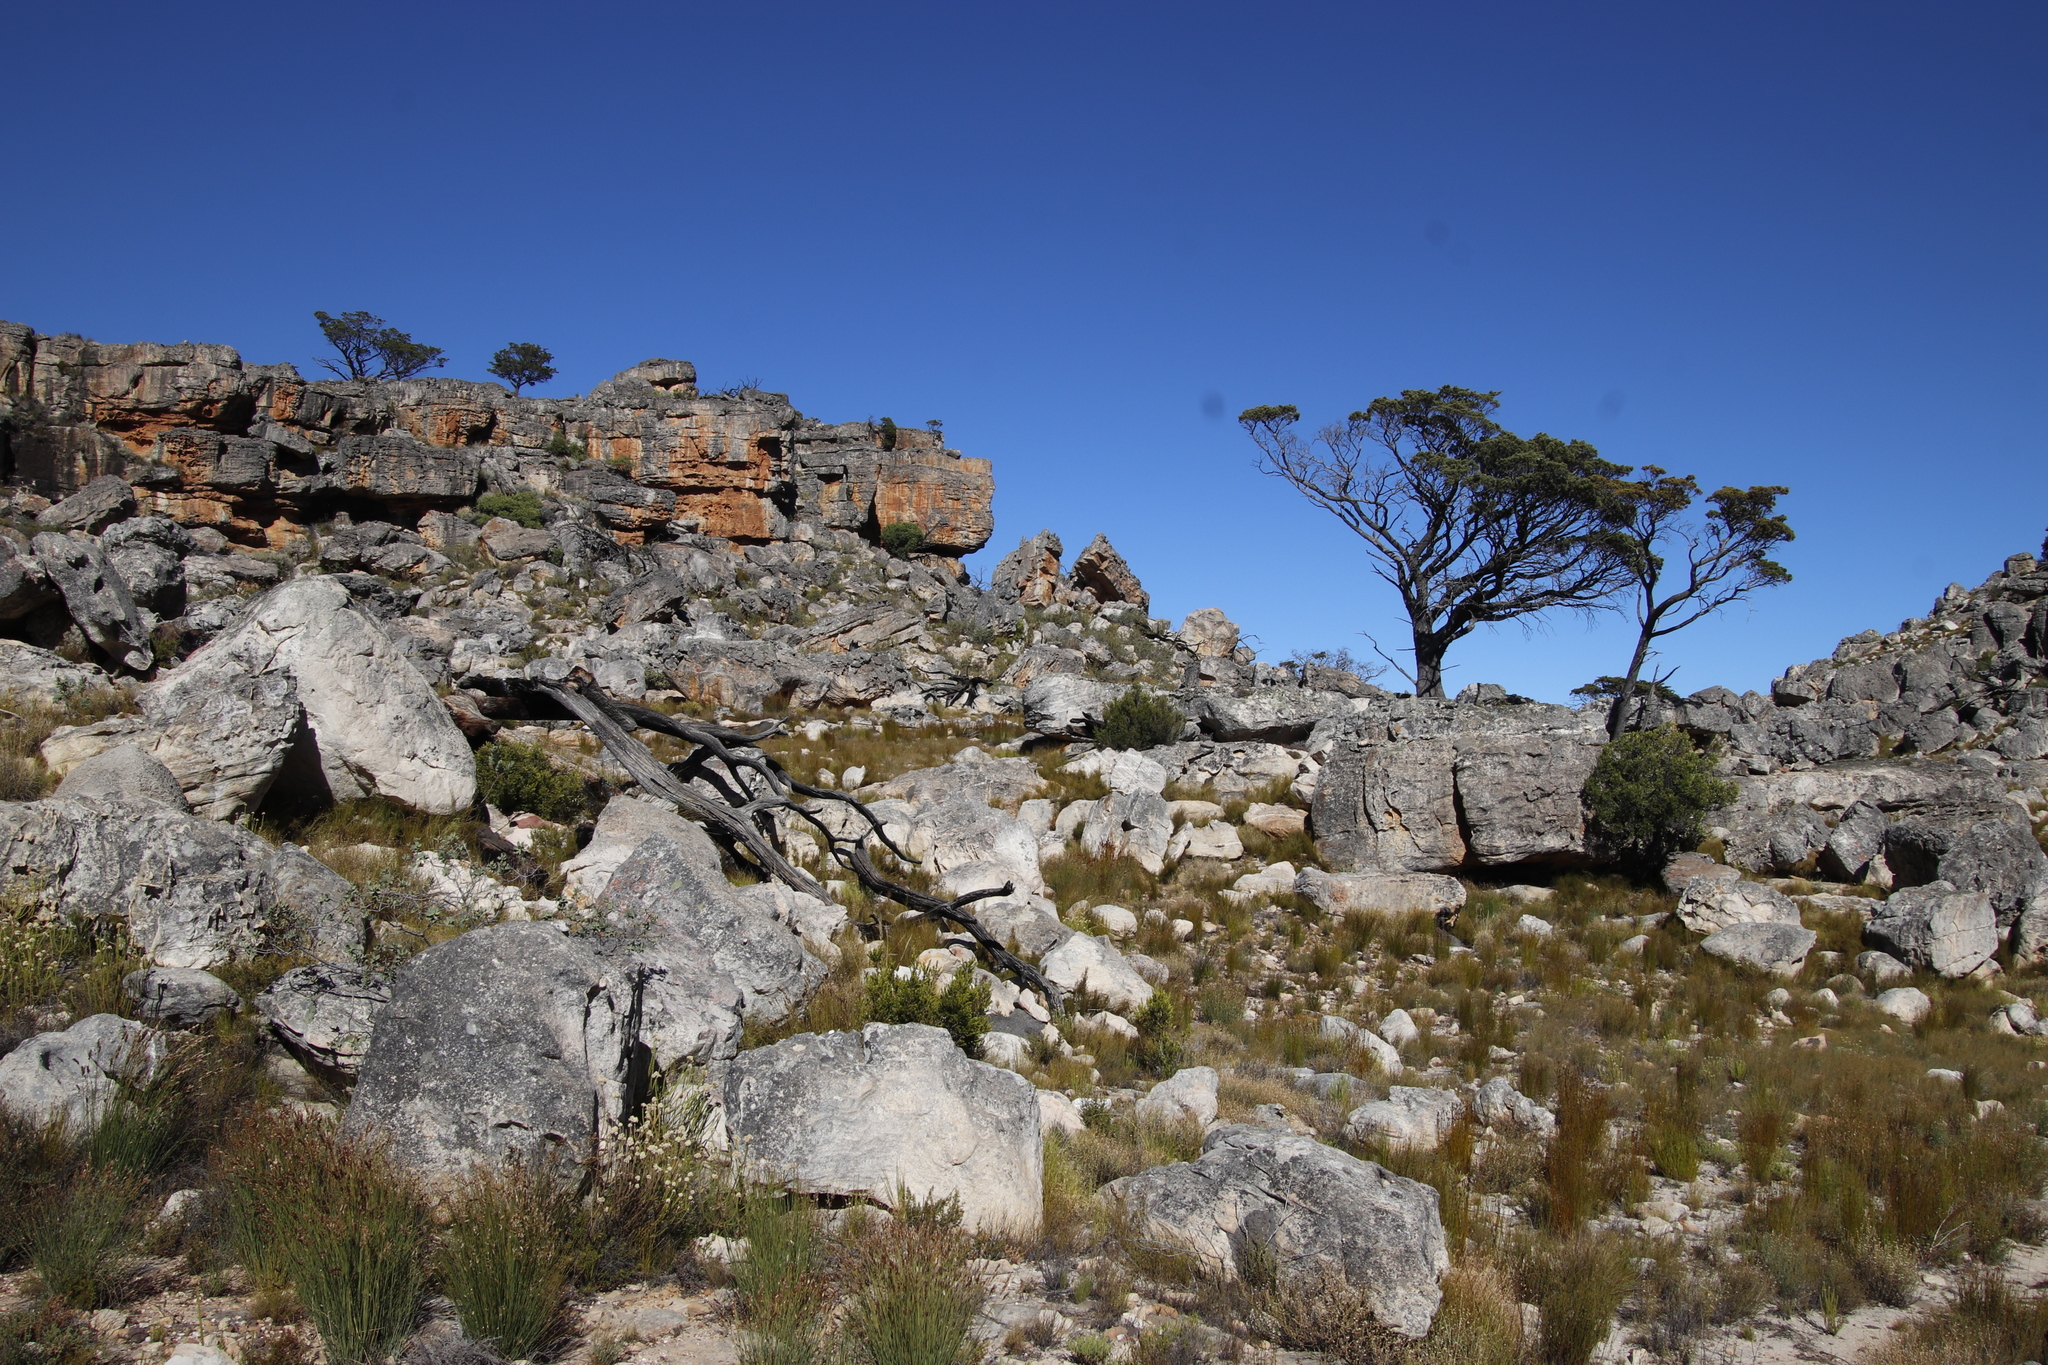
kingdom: Plantae
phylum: Tracheophyta
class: Pinopsida
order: Pinales
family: Cupressaceae
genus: Widdringtonia
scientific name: Widdringtonia nodiflora
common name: Cape cypress
